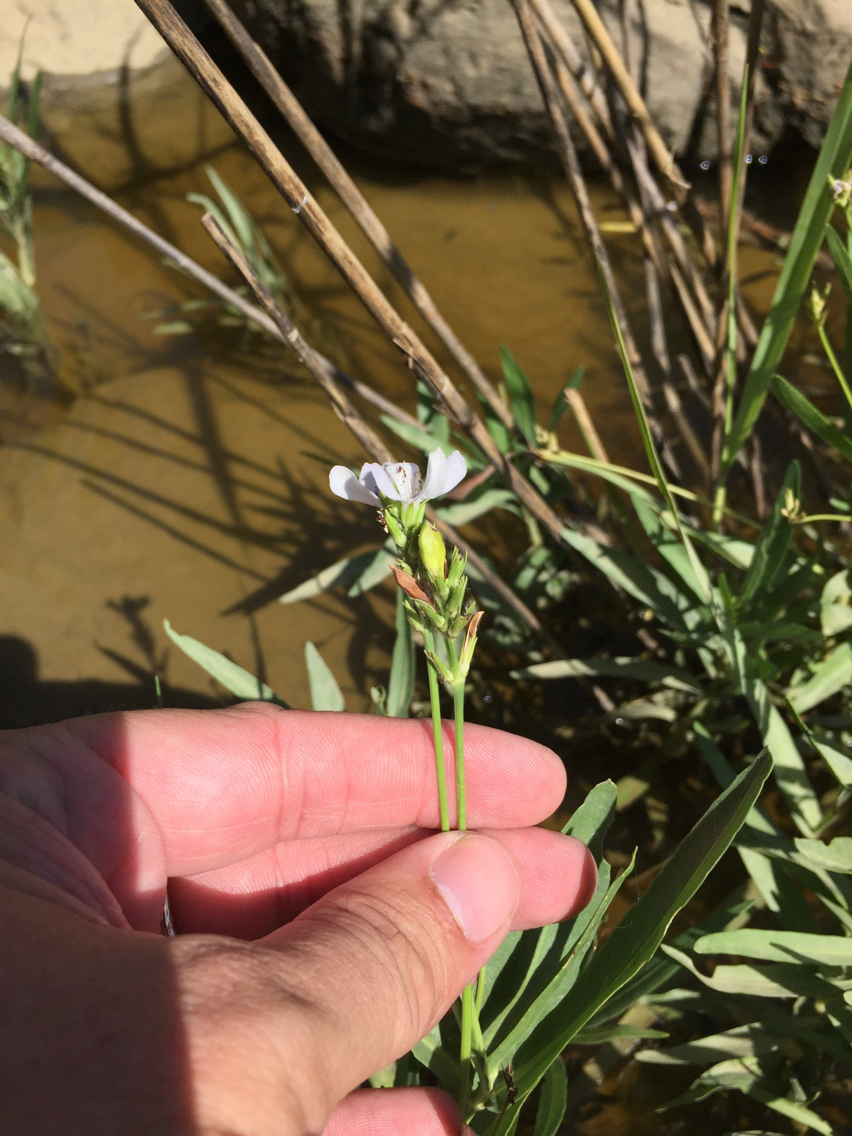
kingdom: Plantae
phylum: Tracheophyta
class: Magnoliopsida
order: Lamiales
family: Acanthaceae
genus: Dianthera
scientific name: Dianthera americana
